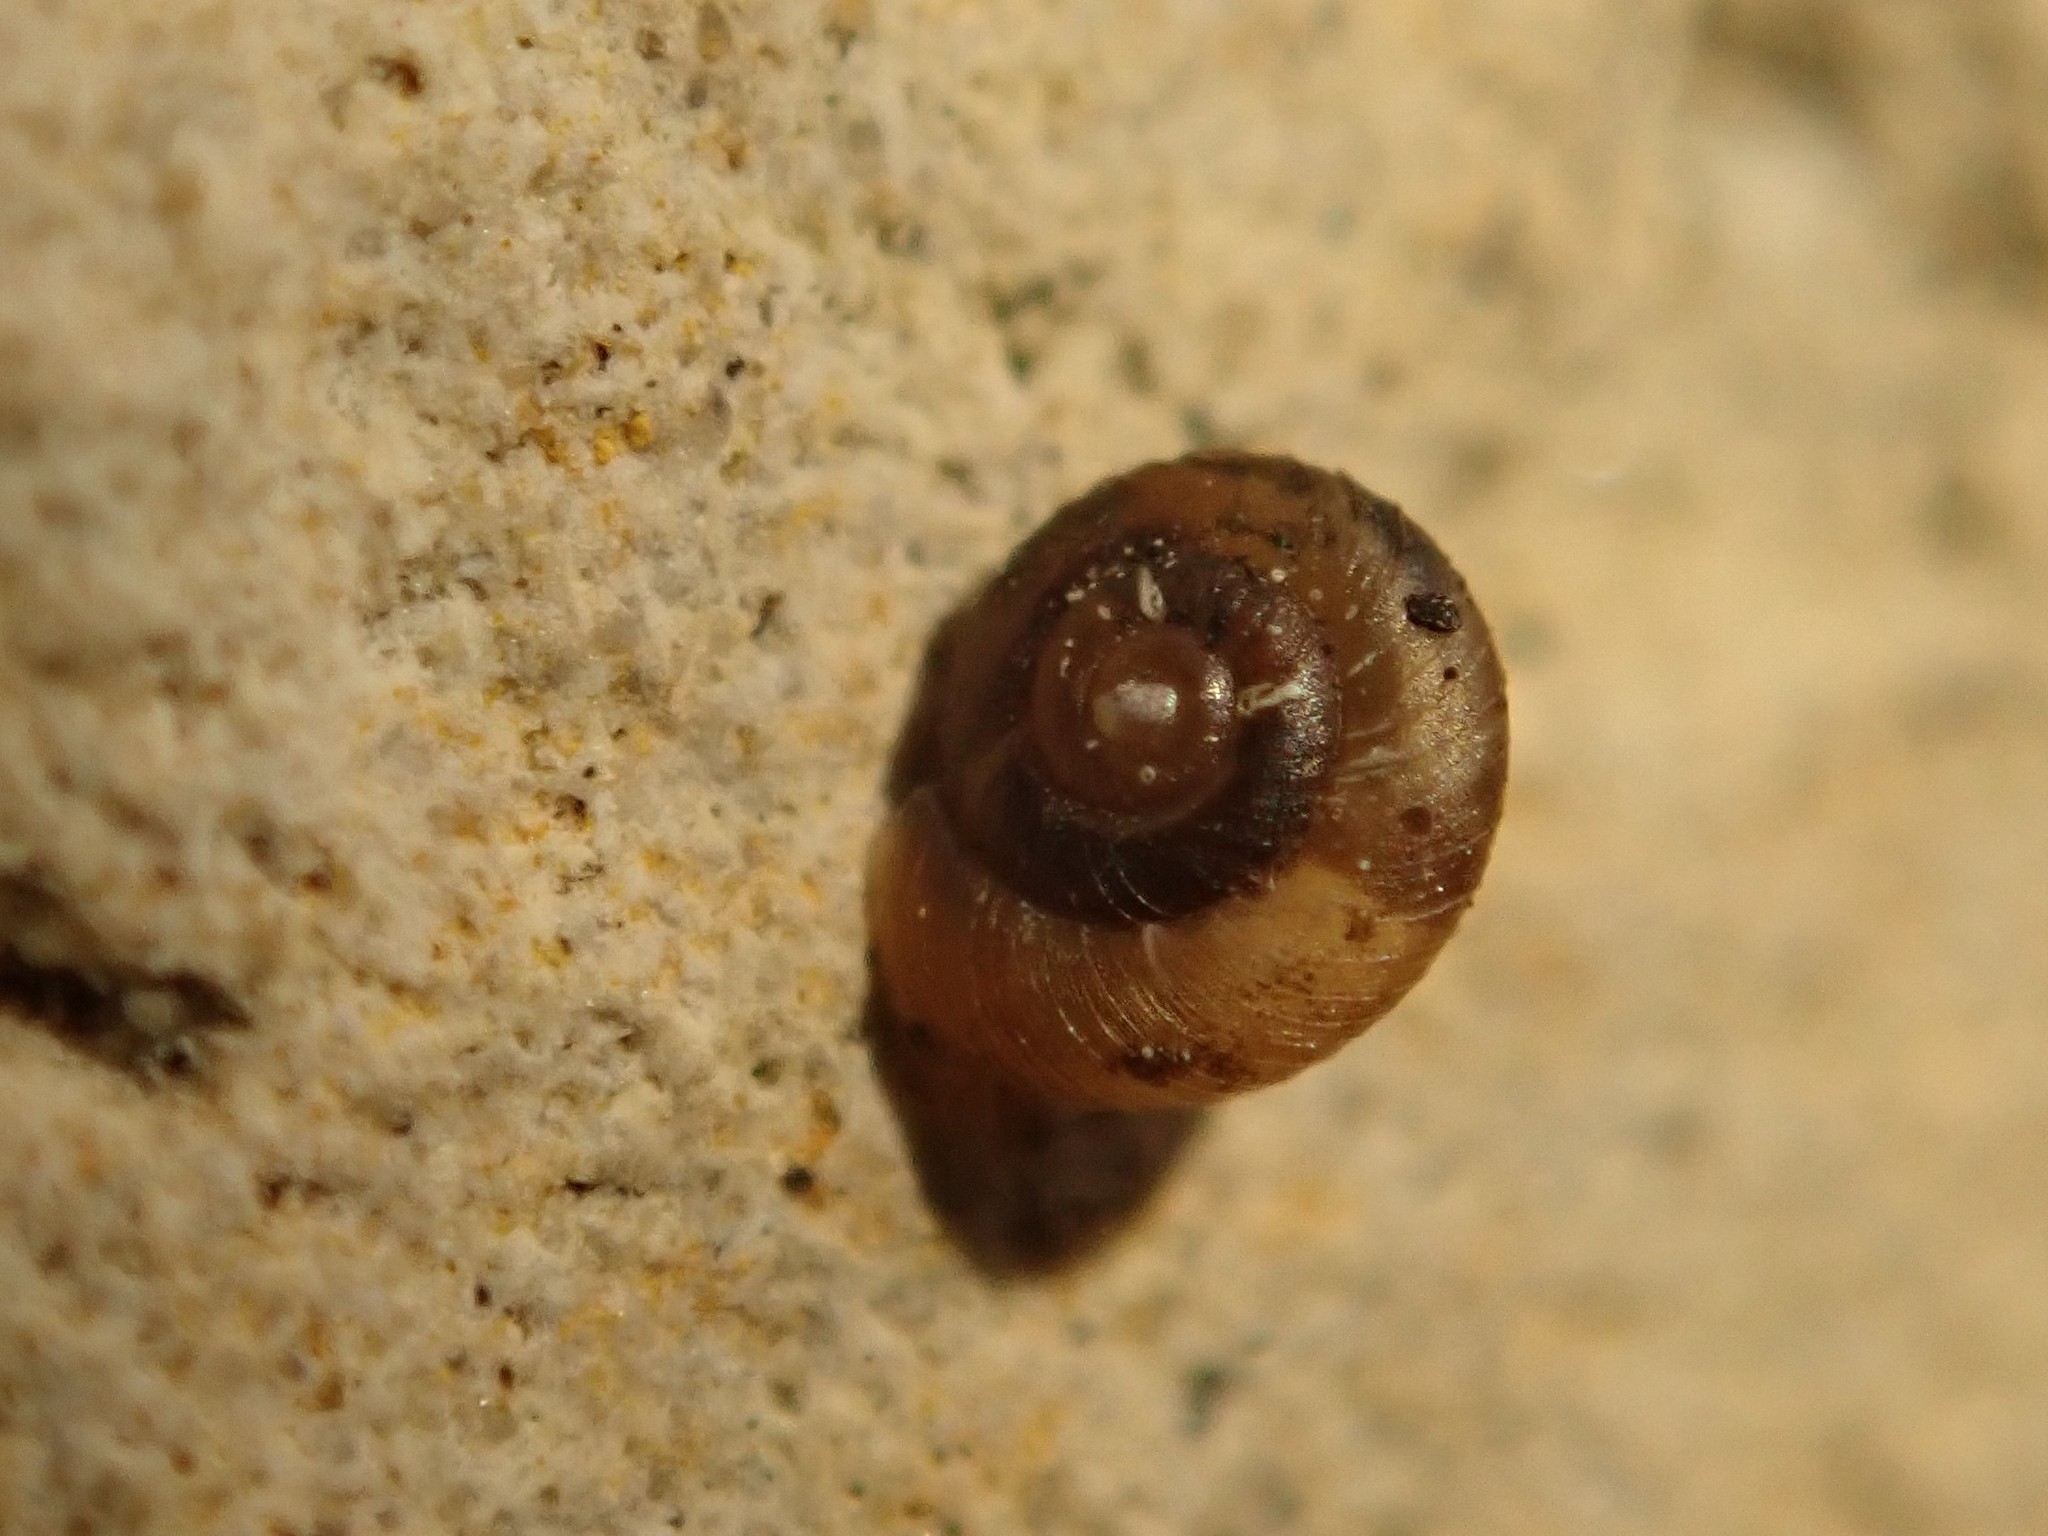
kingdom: Animalia
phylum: Mollusca
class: Gastropoda
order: Stylommatophora
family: Punctidae
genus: Paralaoma
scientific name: Paralaoma servilis
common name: Pinhead spot
